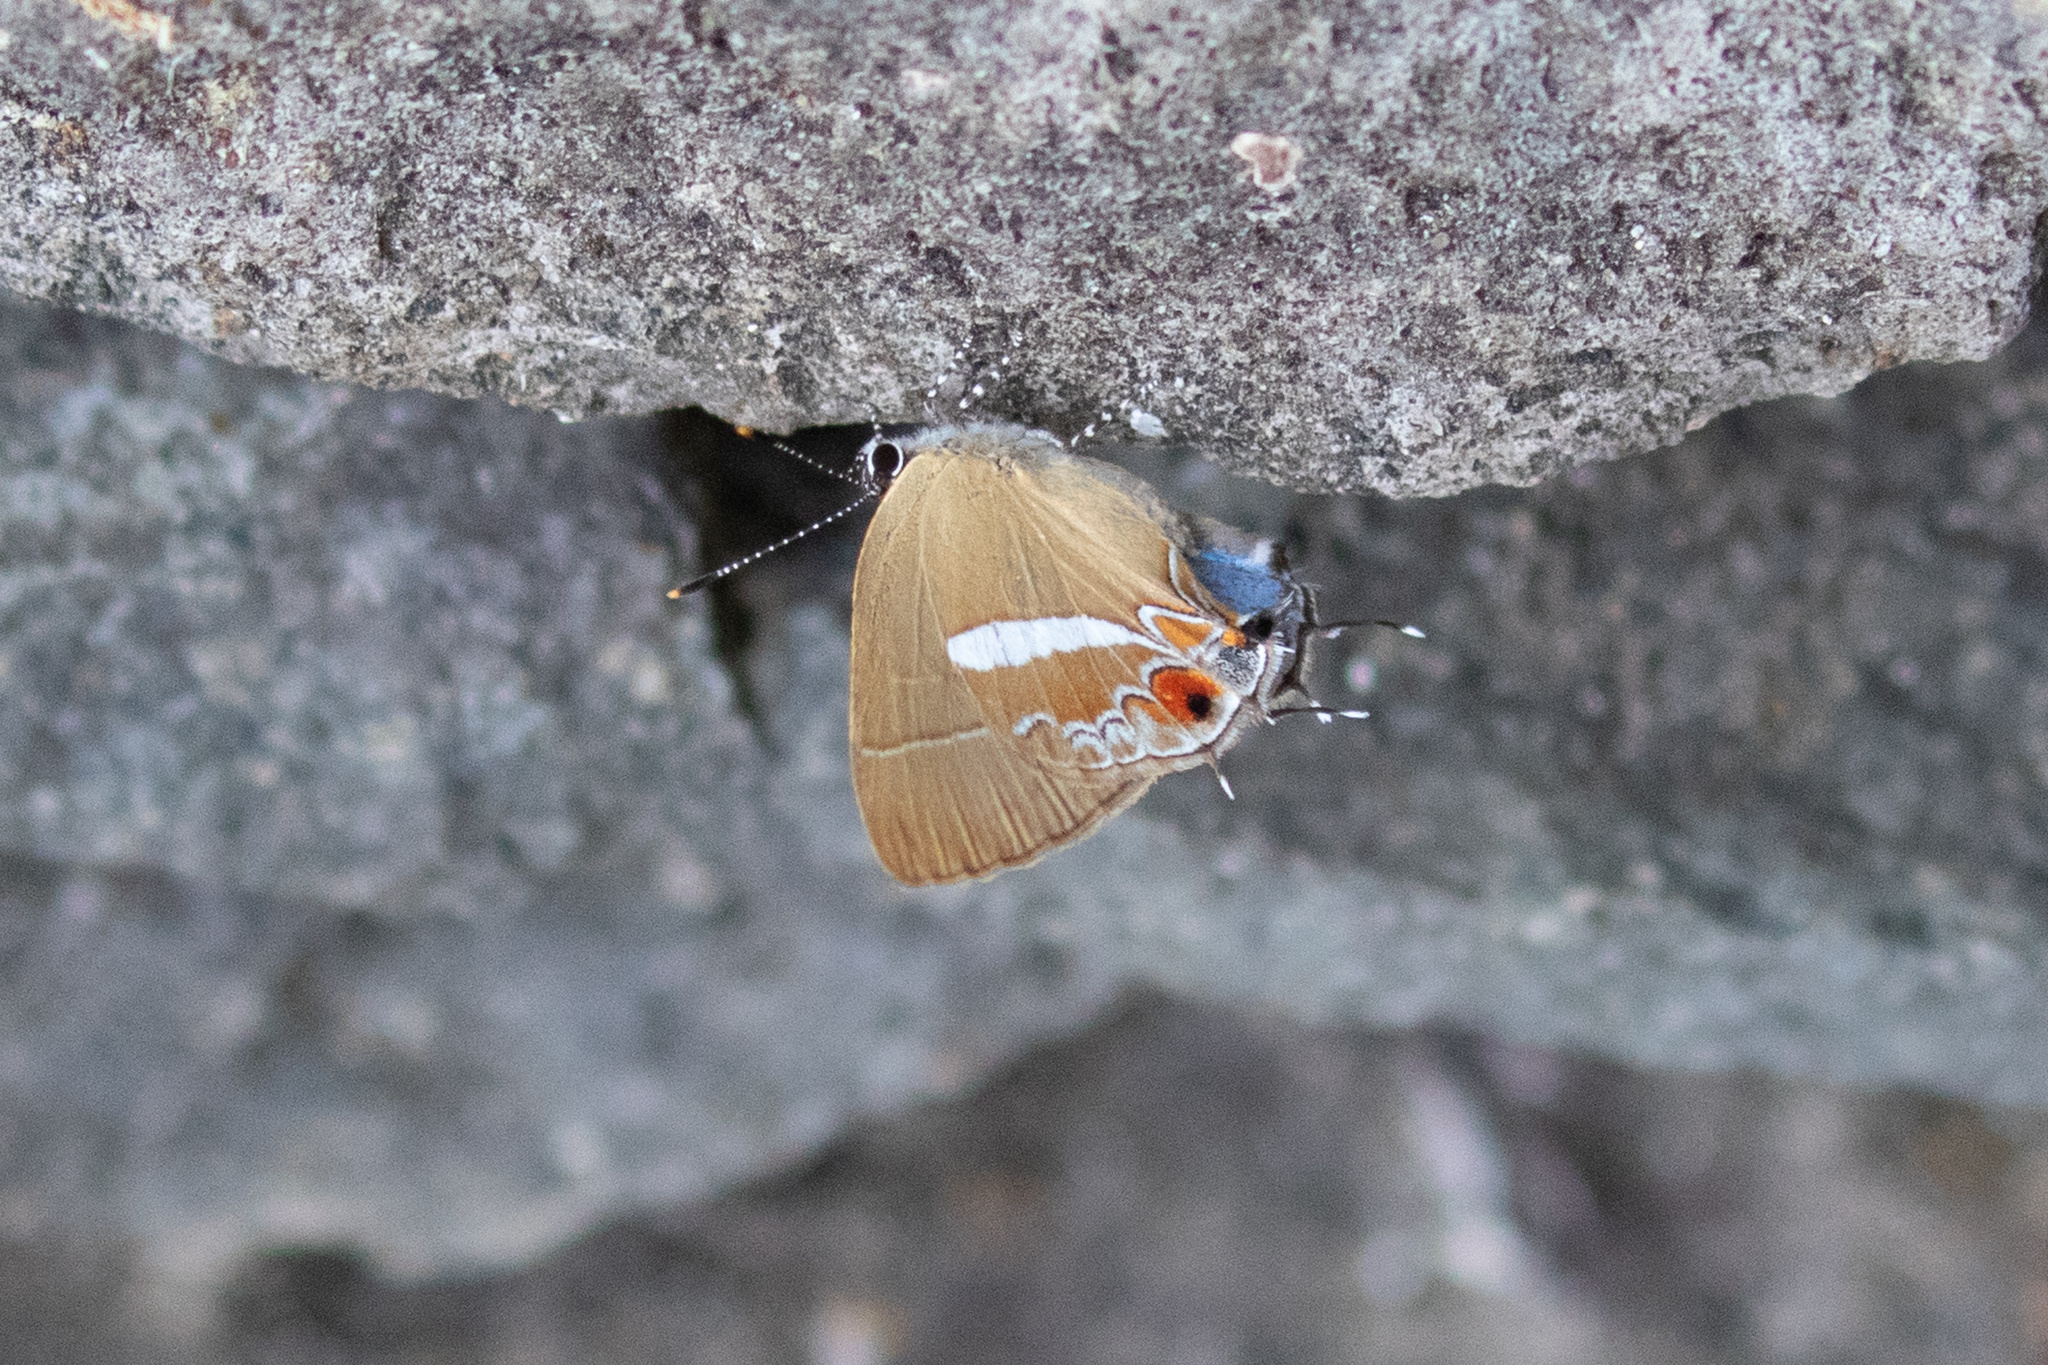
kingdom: Animalia
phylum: Arthropoda
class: Insecta
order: Lepidoptera
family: Lycaenidae
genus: Calycopis
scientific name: Calycopis thama
